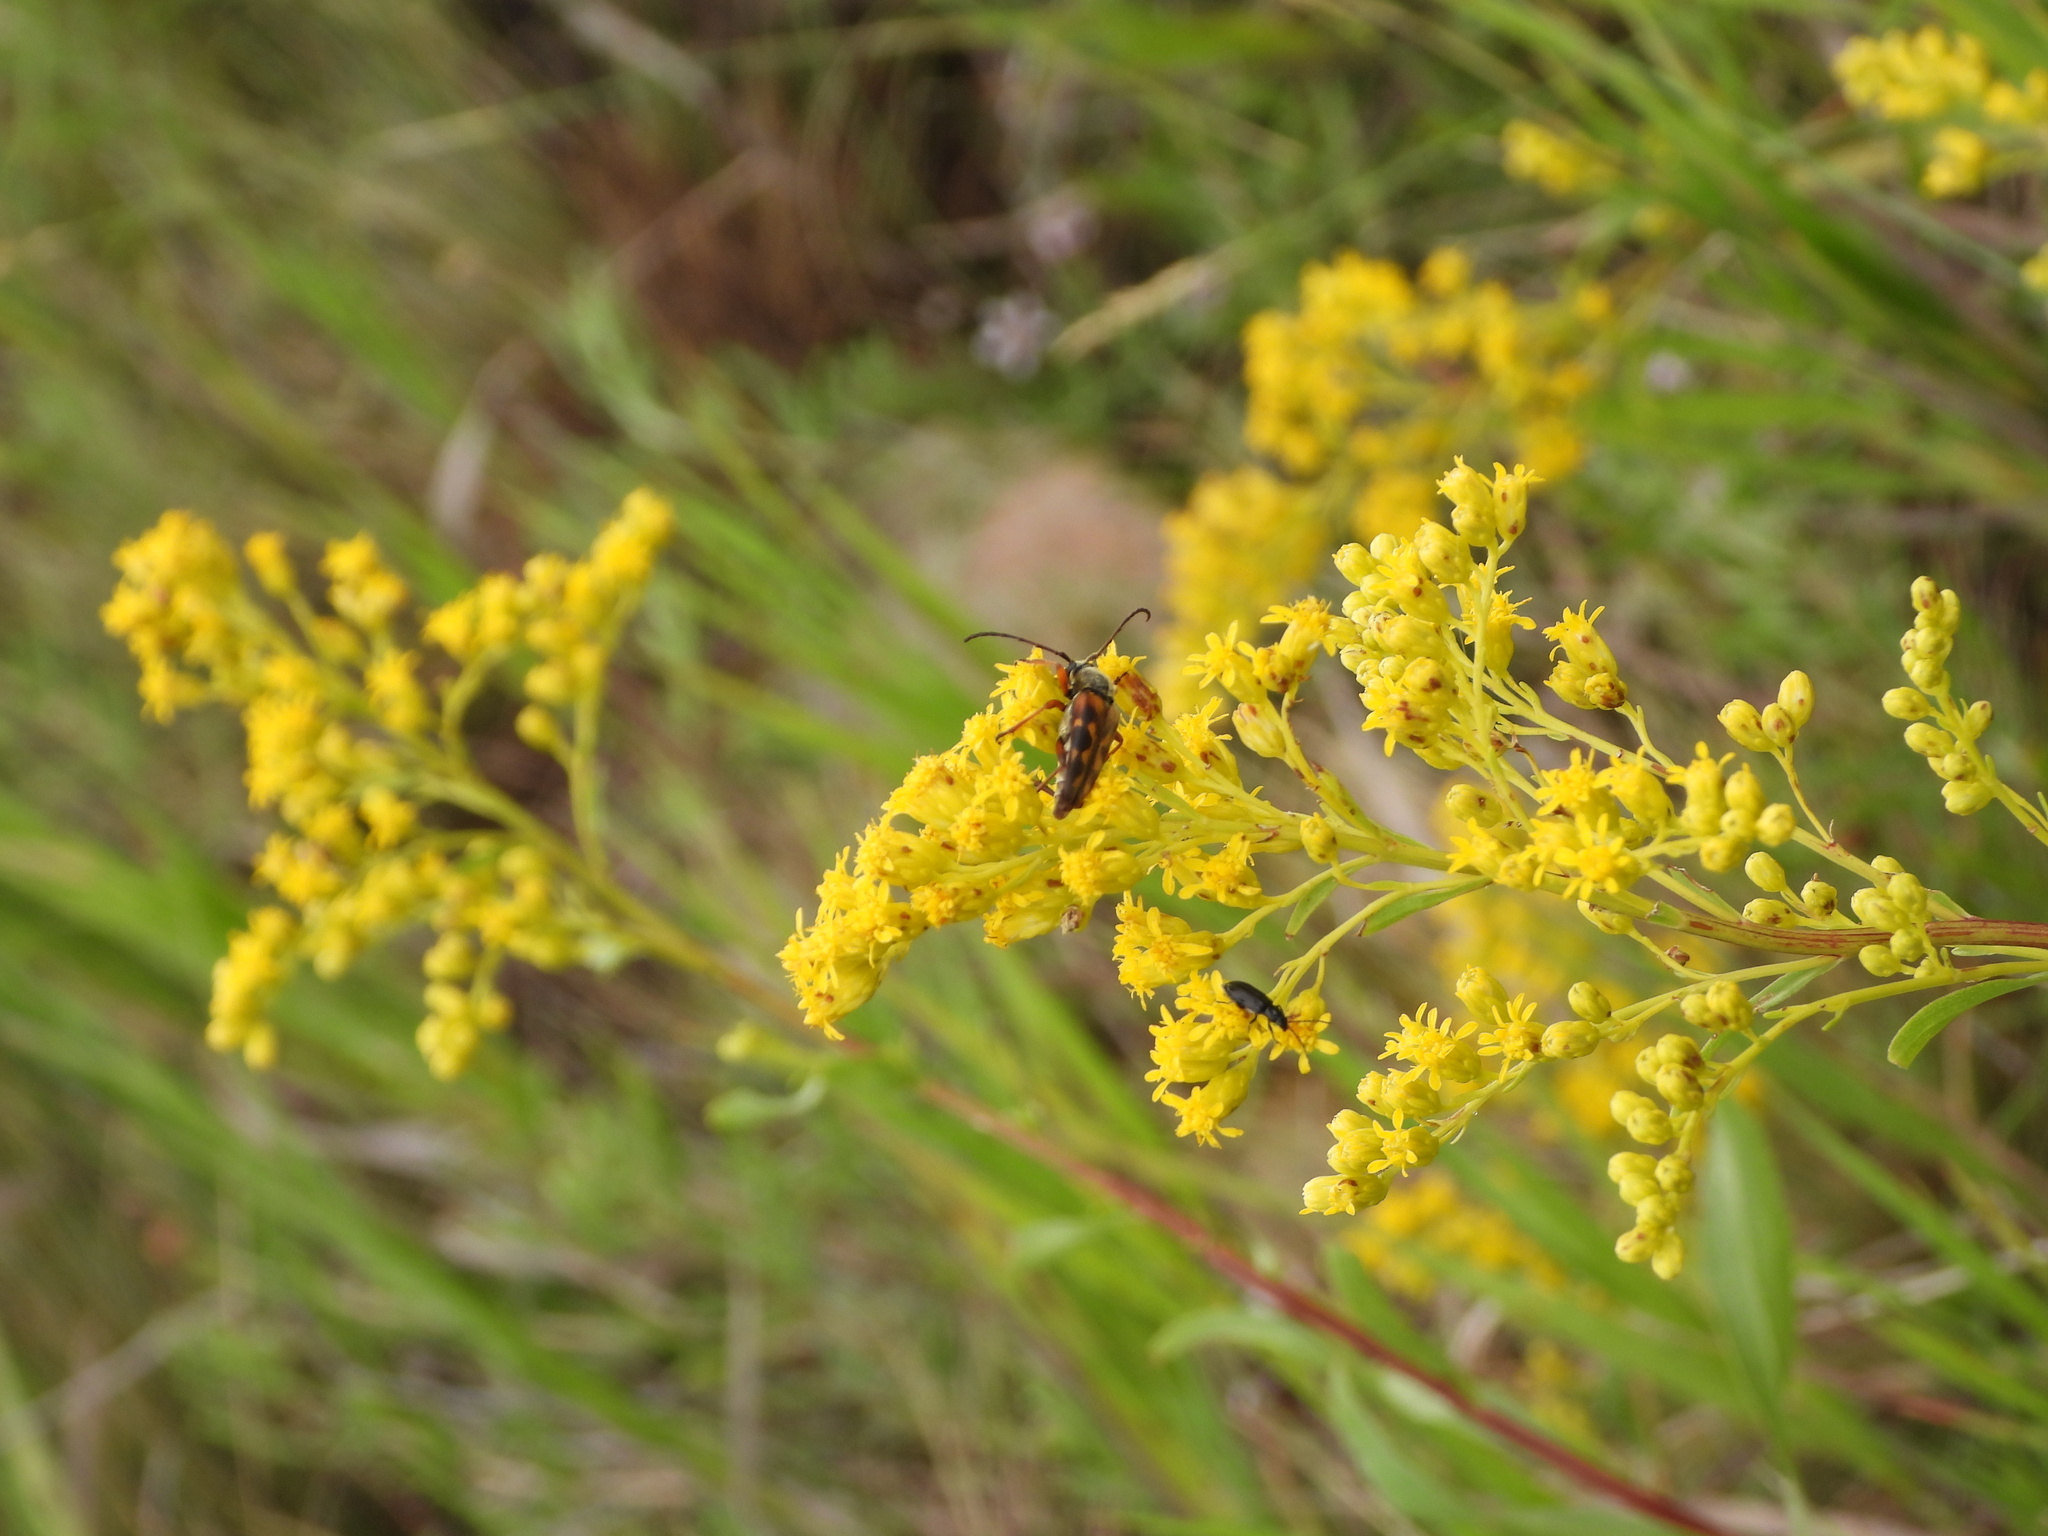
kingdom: Animalia
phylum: Arthropoda
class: Insecta
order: Coleoptera
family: Chrysomelidae
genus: Diabrotica
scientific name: Diabrotica cristata
